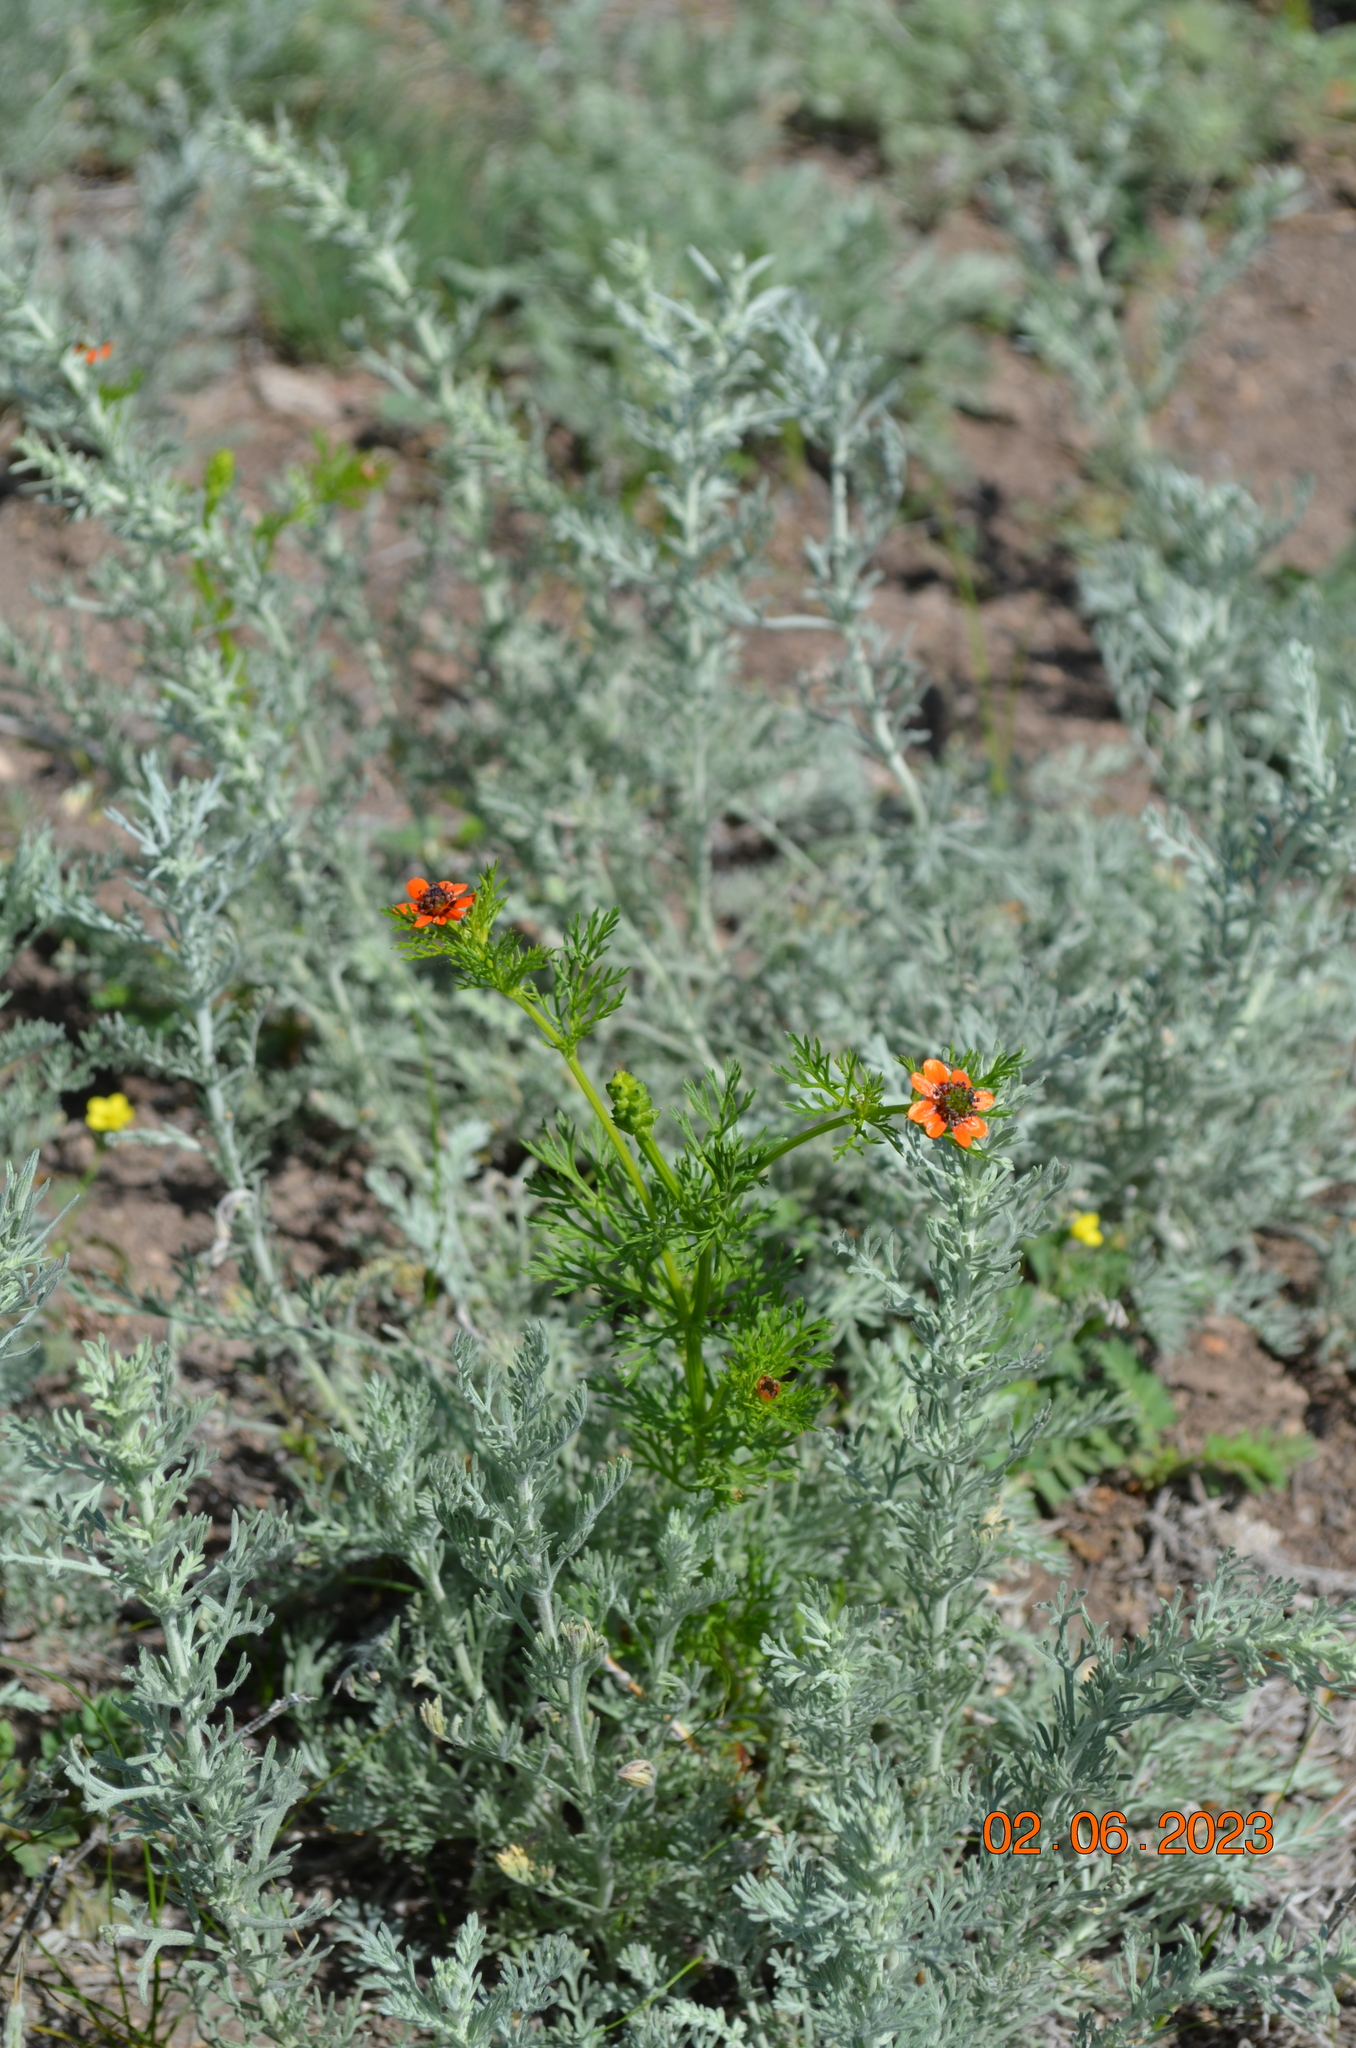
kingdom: Plantae
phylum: Tracheophyta
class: Magnoliopsida
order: Ranunculales
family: Ranunculaceae
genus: Adonis
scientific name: Adonis aestivalis
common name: Summer pheasant's-eye
